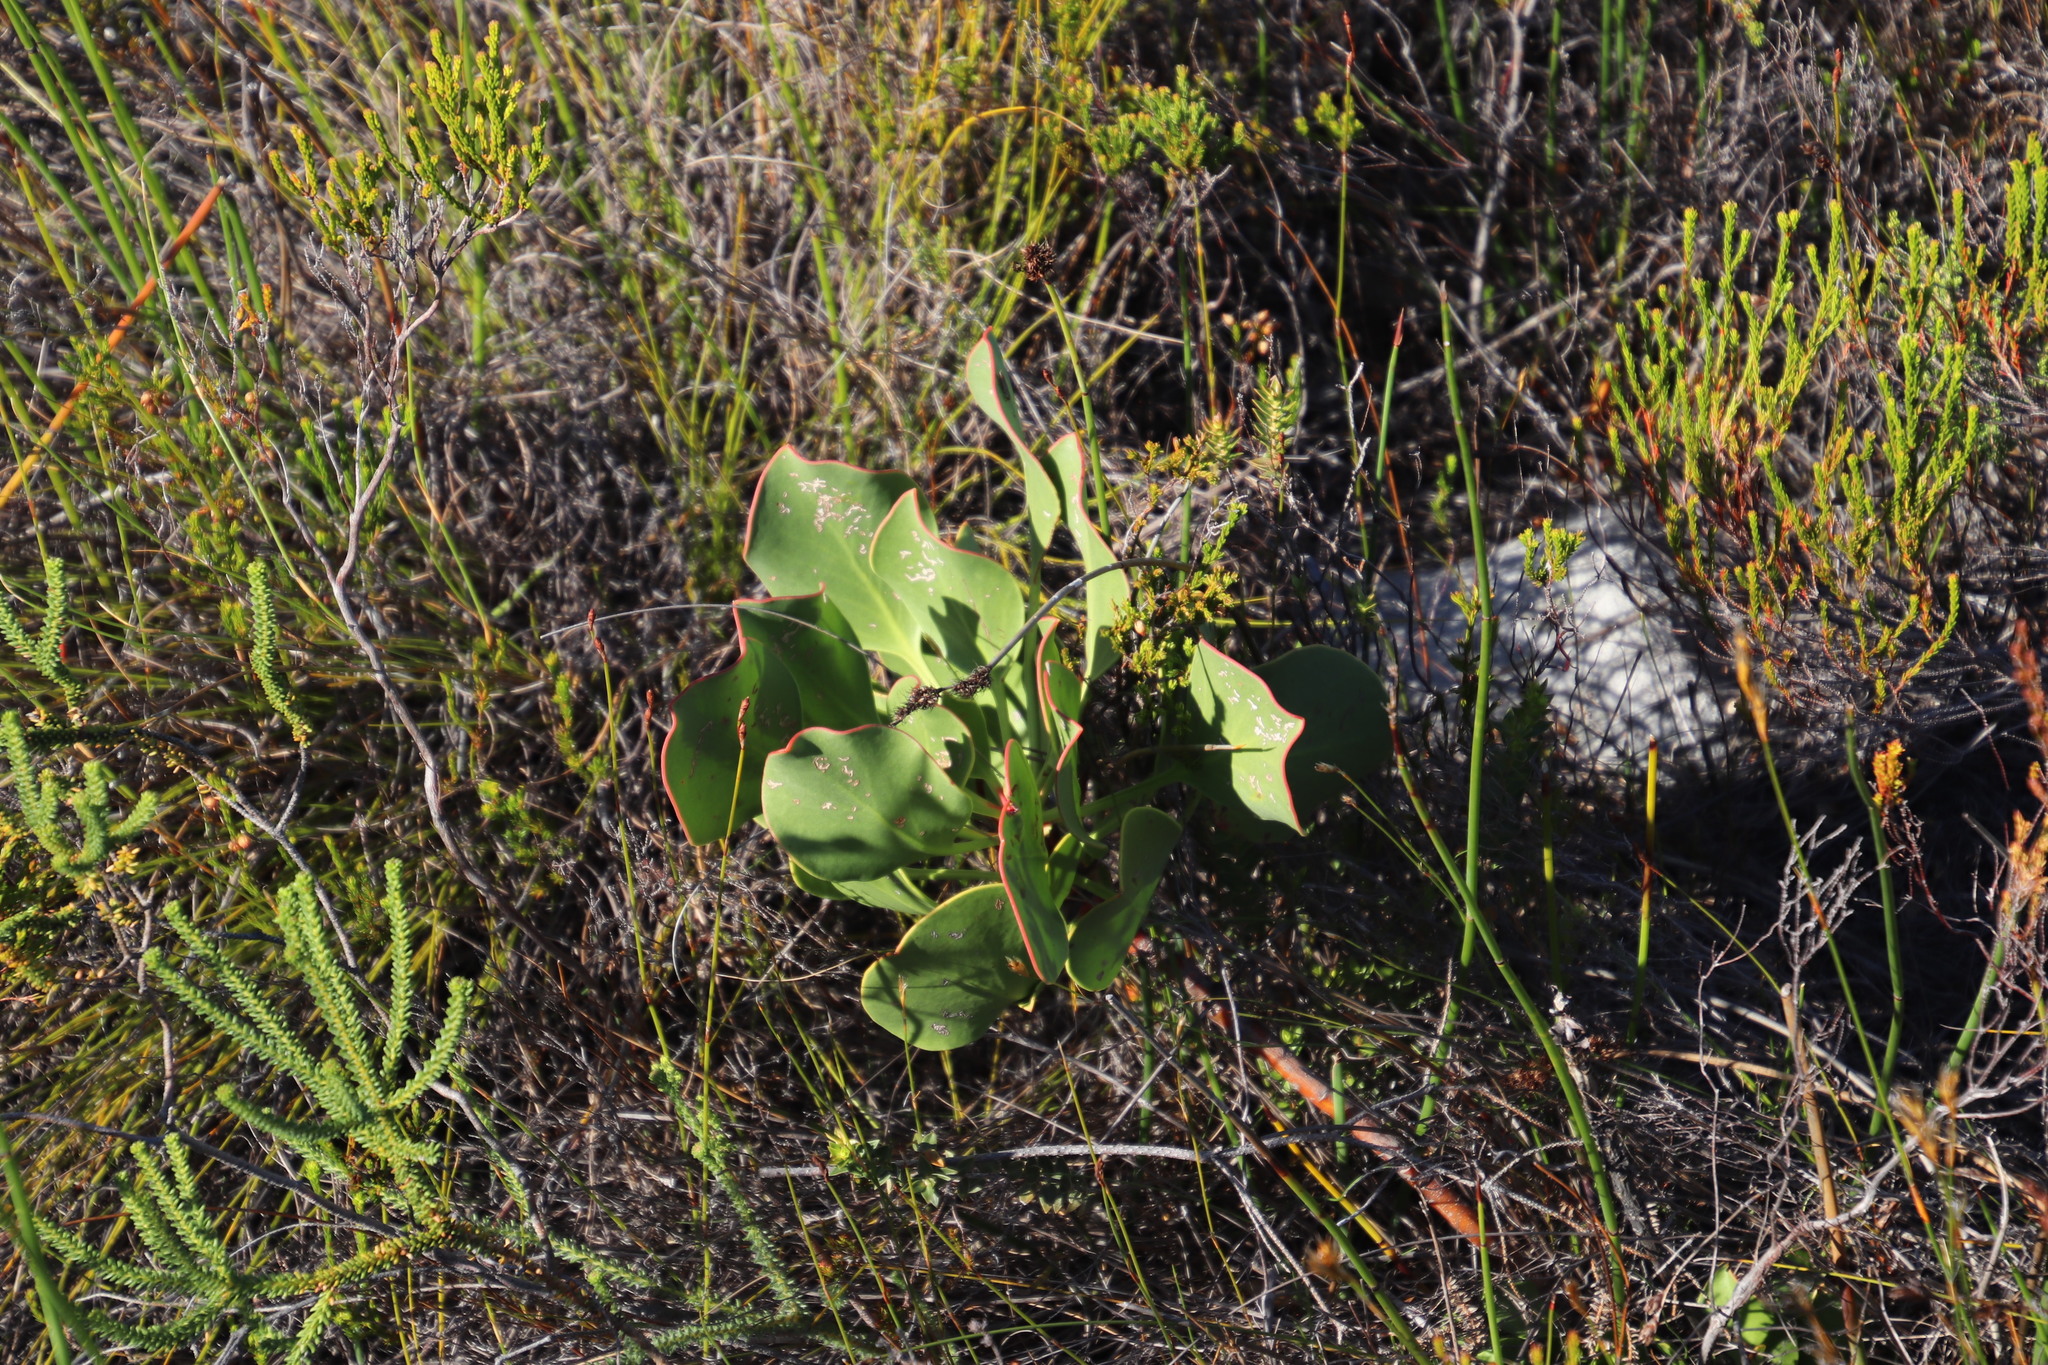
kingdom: Plantae
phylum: Tracheophyta
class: Magnoliopsida
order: Proteales
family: Proteaceae
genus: Protea
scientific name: Protea cynaroides
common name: King protea
